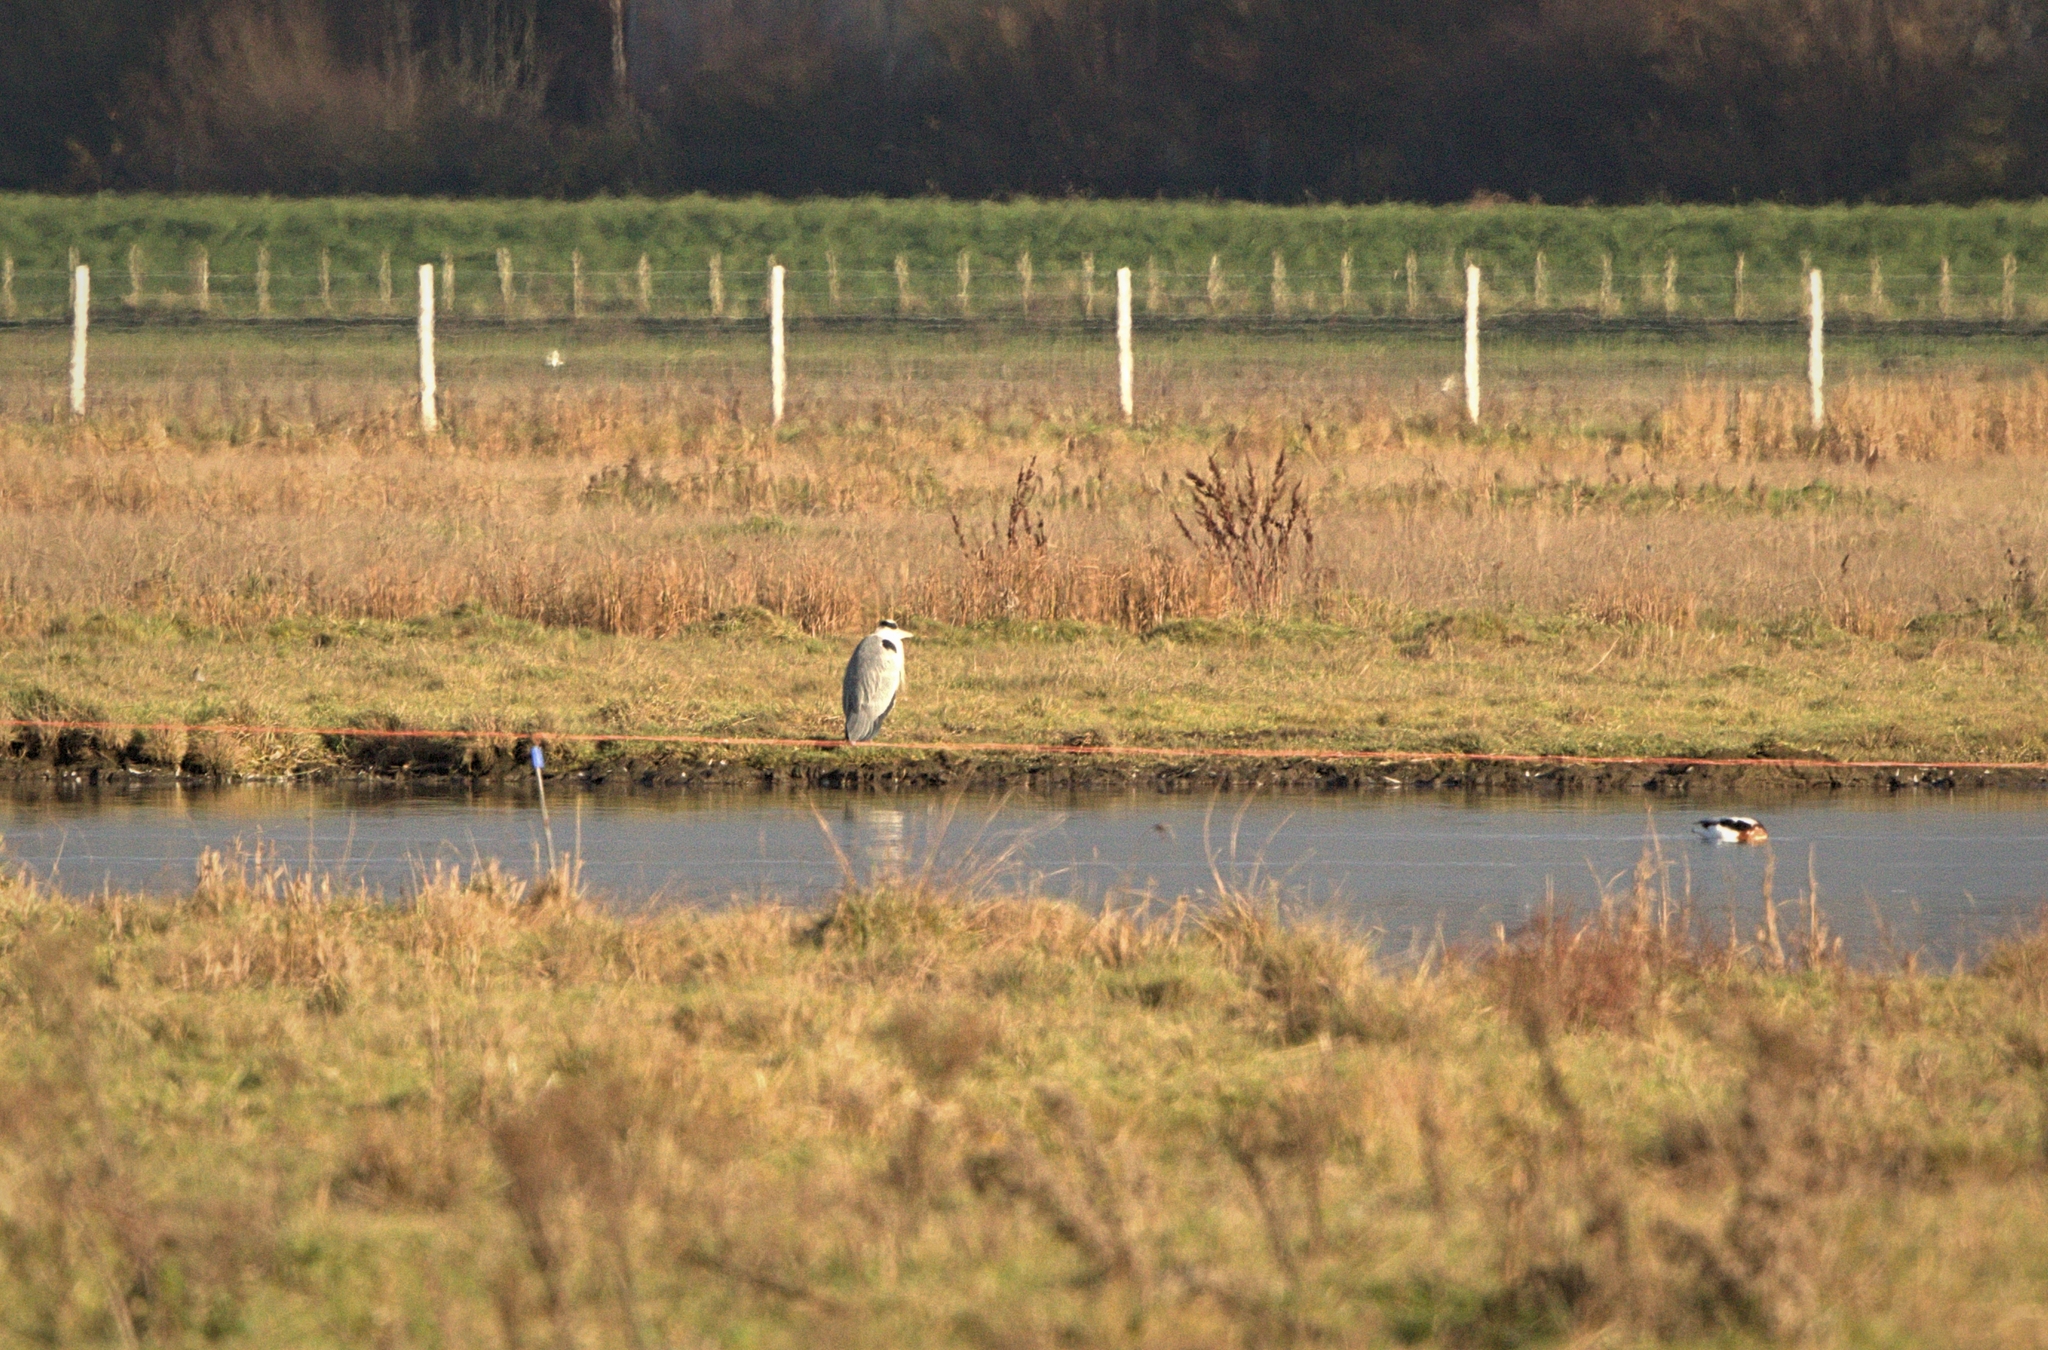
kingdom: Animalia
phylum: Chordata
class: Aves
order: Pelecaniformes
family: Ardeidae
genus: Ardea
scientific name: Ardea cinerea
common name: Grey heron
